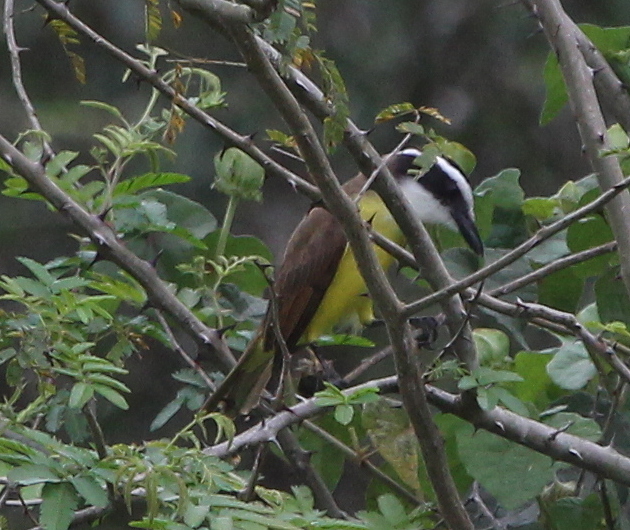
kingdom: Animalia
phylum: Chordata
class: Aves
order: Passeriformes
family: Tyrannidae
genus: Pitangus
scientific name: Pitangus sulphuratus
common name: Great kiskadee
